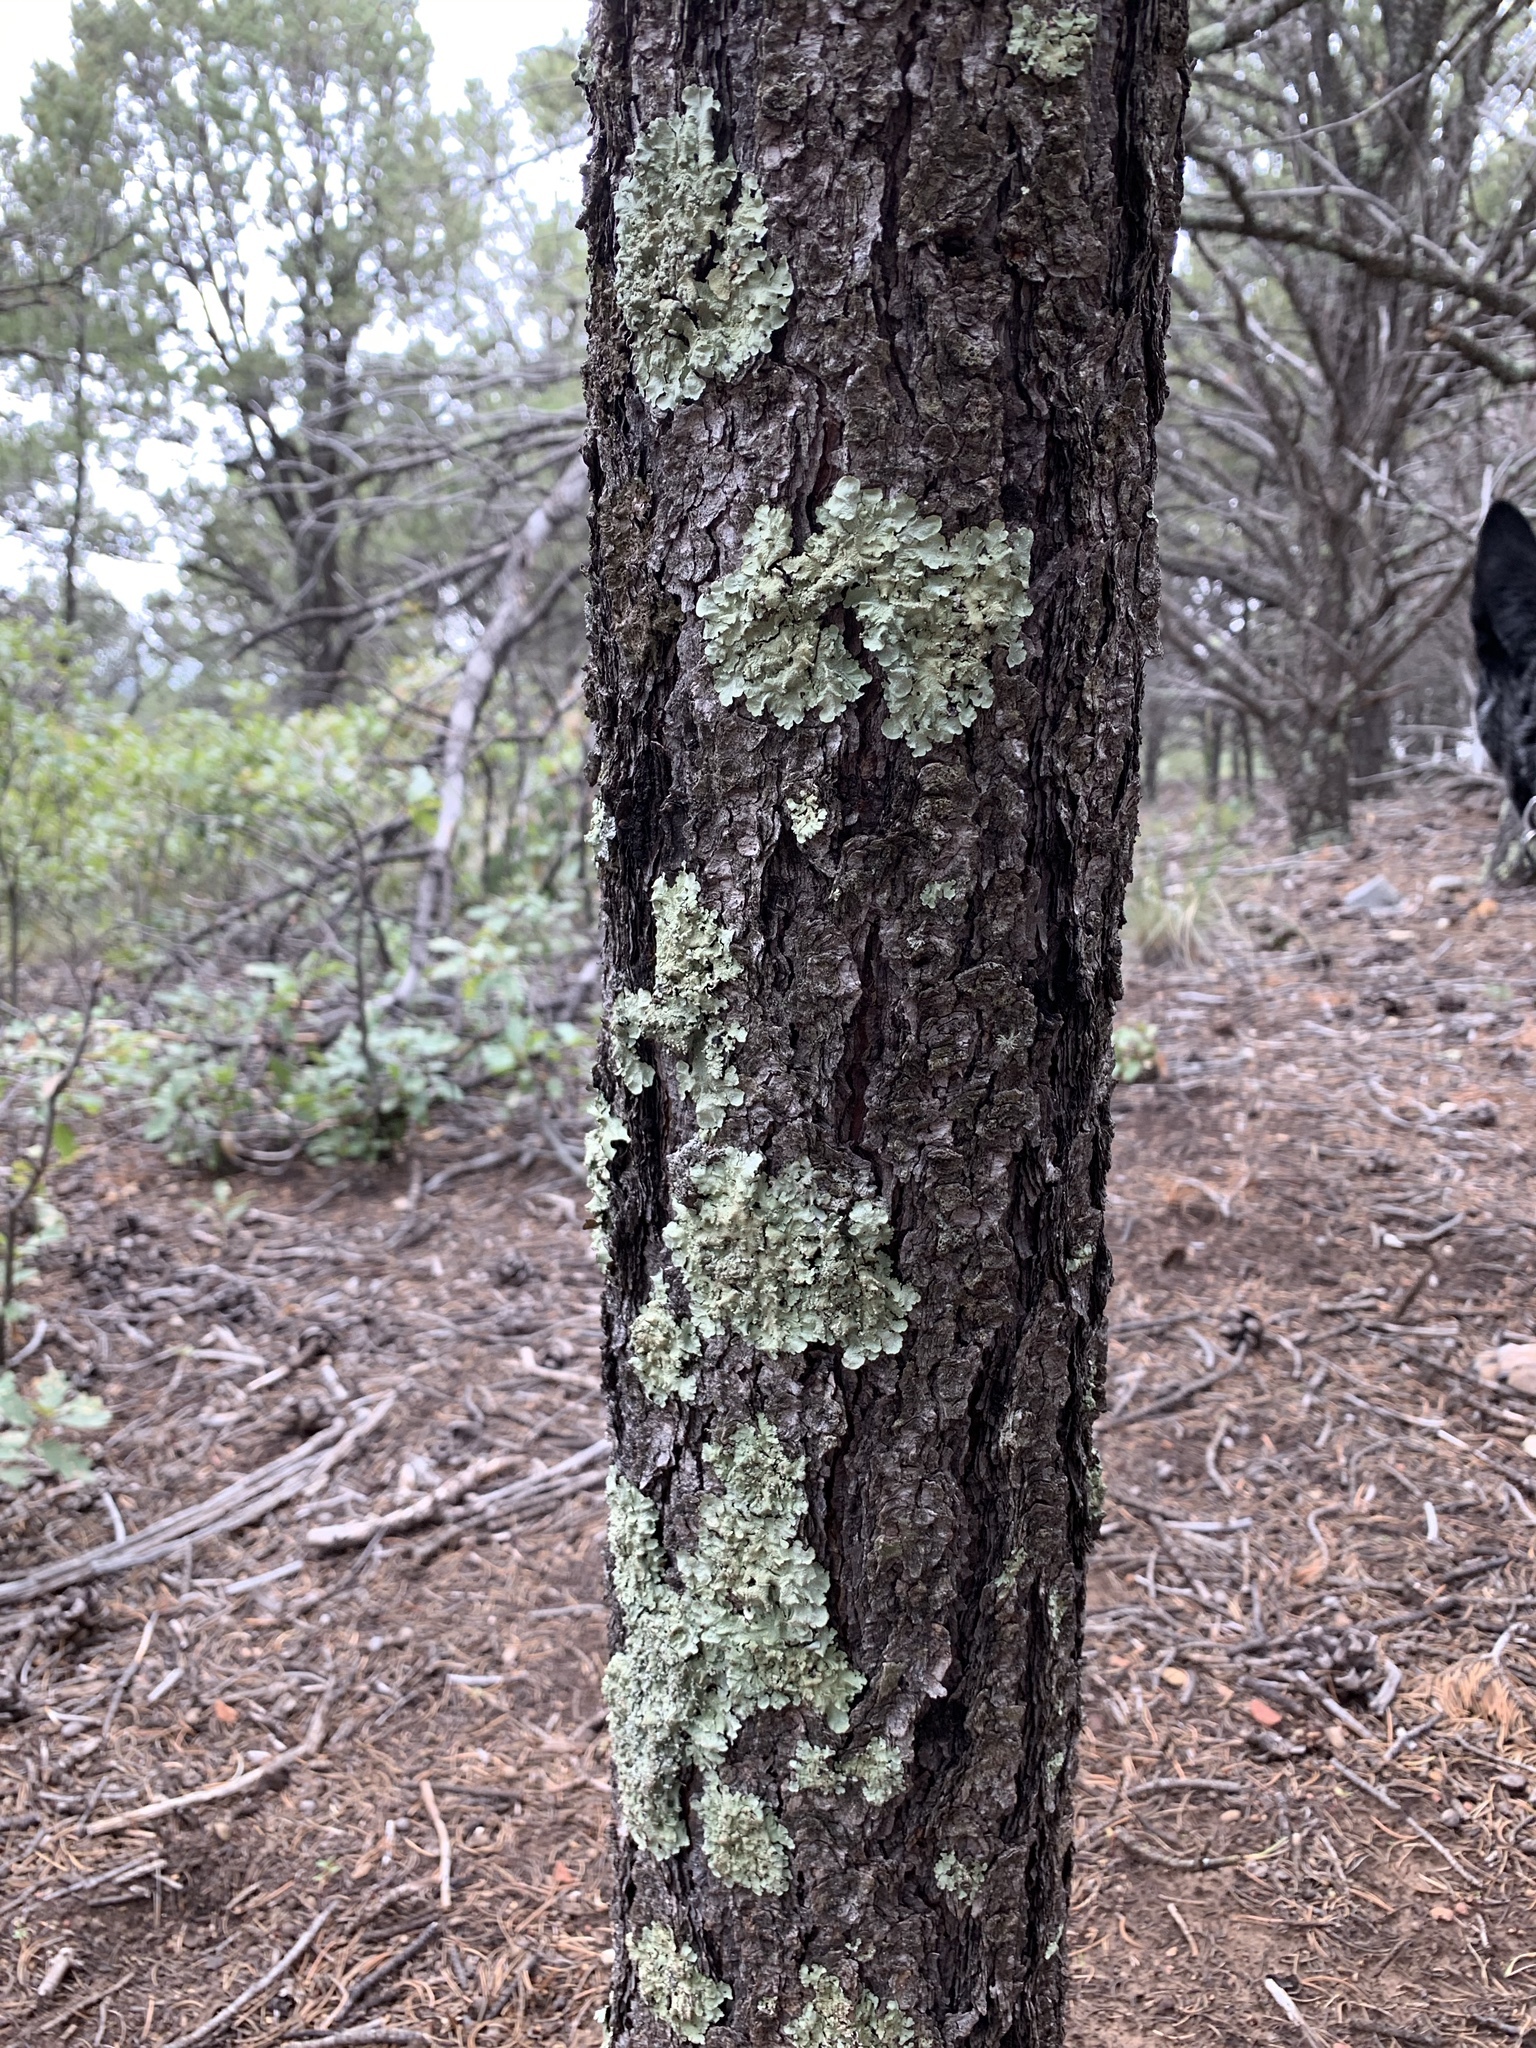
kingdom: Fungi
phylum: Ascomycota
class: Lecanoromycetes
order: Lecanorales
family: Parmeliaceae
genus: Flavopunctelia
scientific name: Flavopunctelia flaventior
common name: Speckled greenshield
